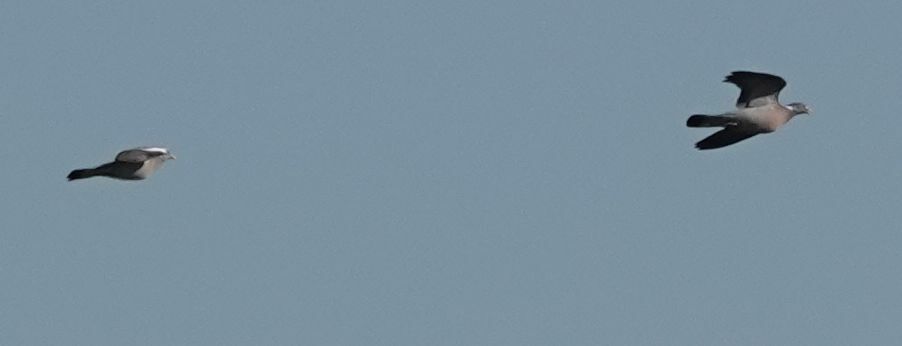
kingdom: Animalia
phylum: Chordata
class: Aves
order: Columbiformes
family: Columbidae
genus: Columba
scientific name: Columba palumbus
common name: Common wood pigeon
